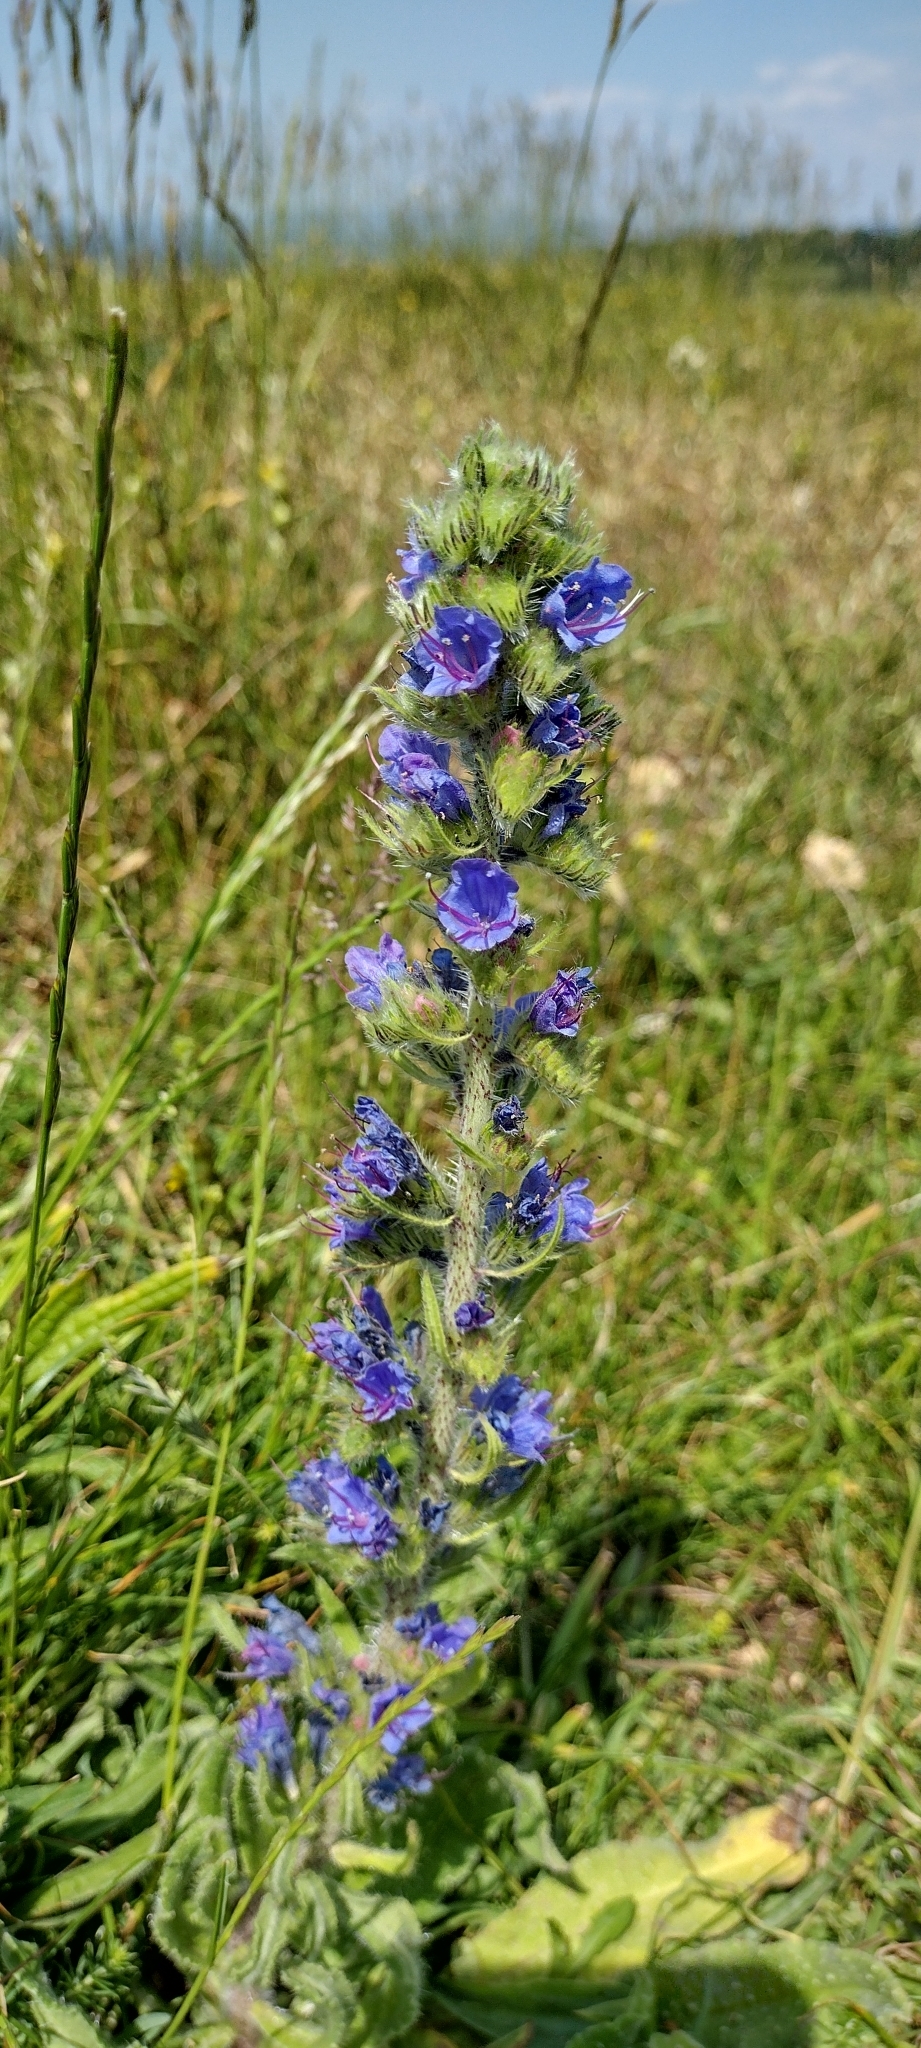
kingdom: Plantae
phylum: Tracheophyta
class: Magnoliopsida
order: Boraginales
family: Boraginaceae
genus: Echium
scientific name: Echium vulgare
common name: Common viper's bugloss
